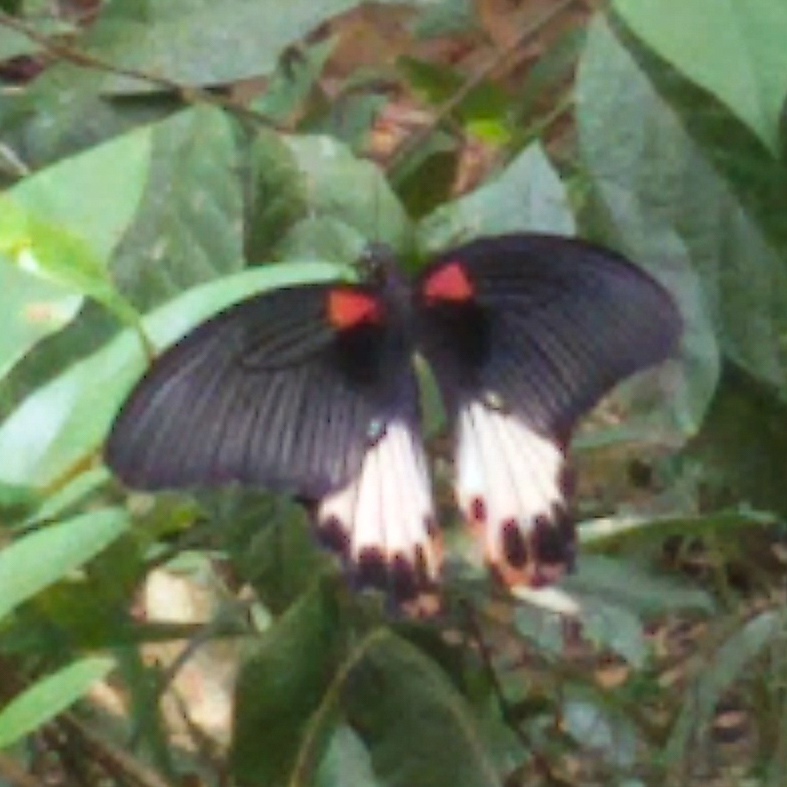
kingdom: Animalia
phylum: Arthropoda
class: Insecta
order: Lepidoptera
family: Papilionidae
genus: Papilio
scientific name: Papilio memnon
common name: Great mormon
